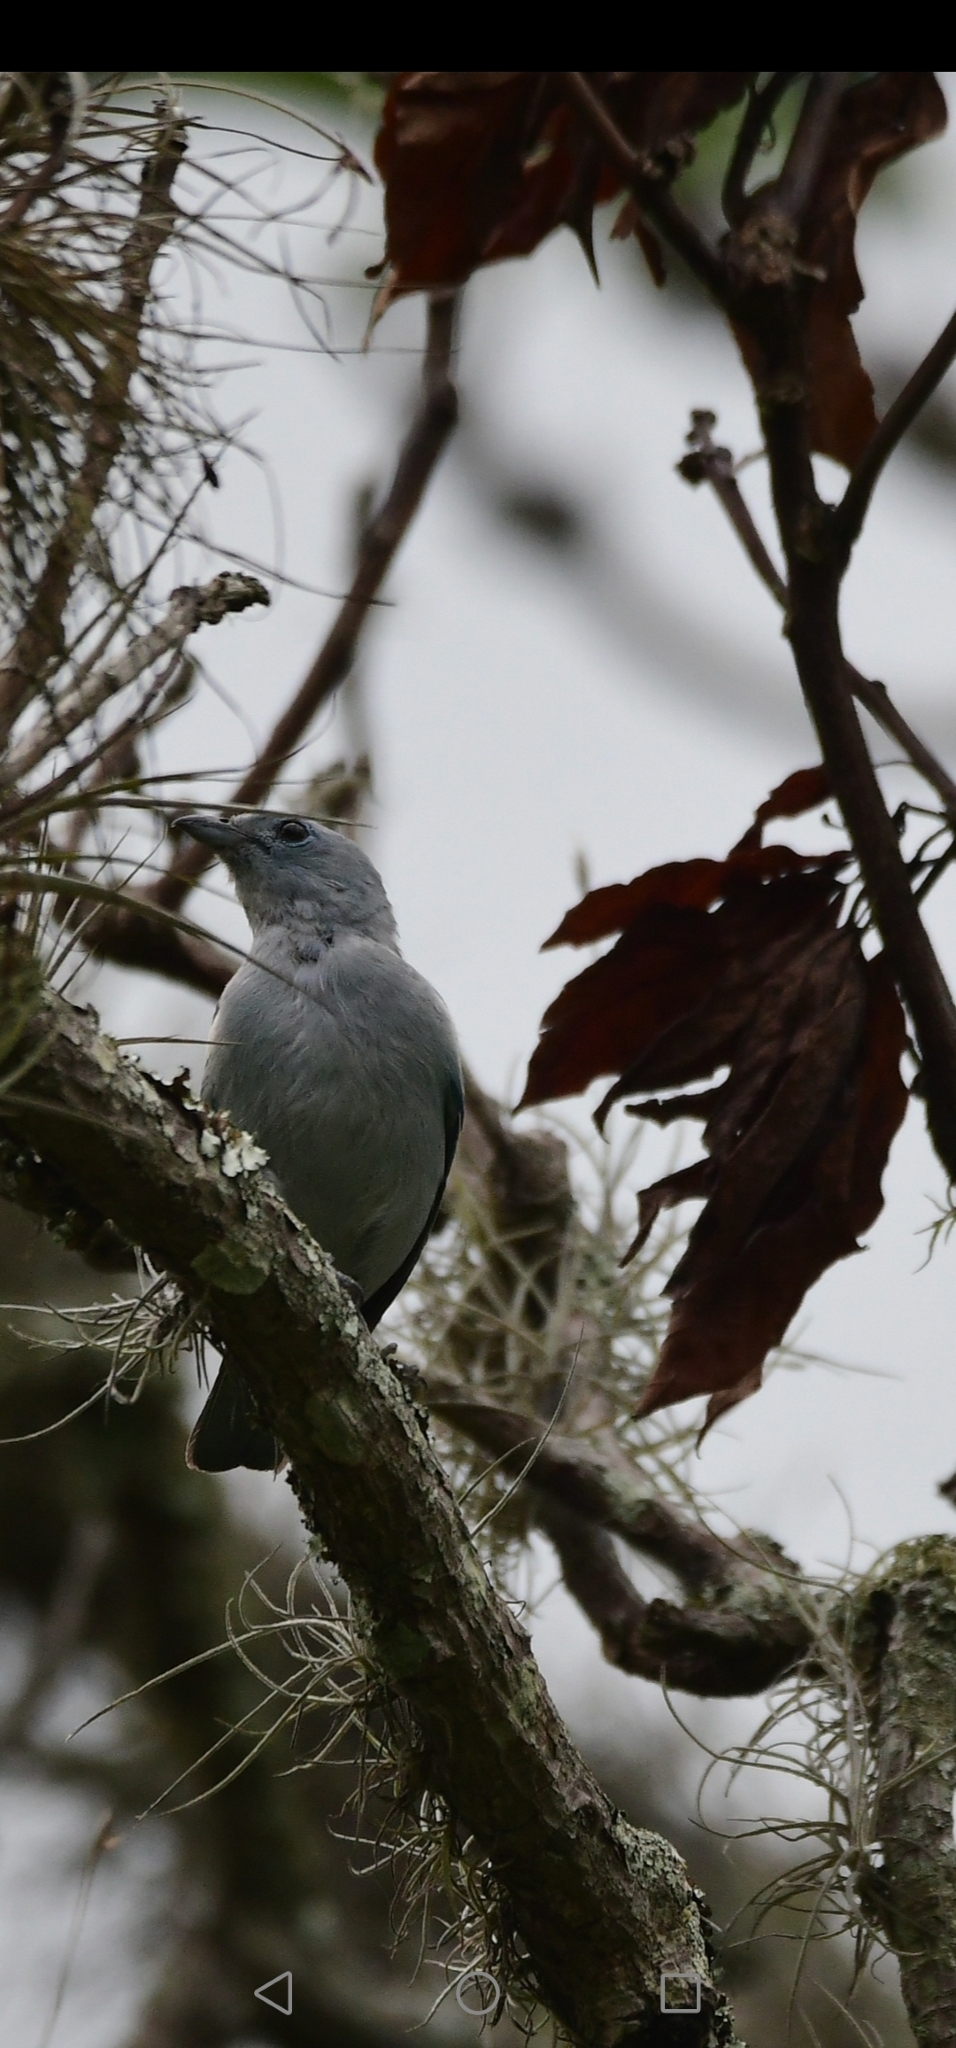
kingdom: Animalia
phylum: Chordata
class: Aves
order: Passeriformes
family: Thraupidae
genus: Thraupis
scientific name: Thraupis episcopus
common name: Blue-grey tanager
